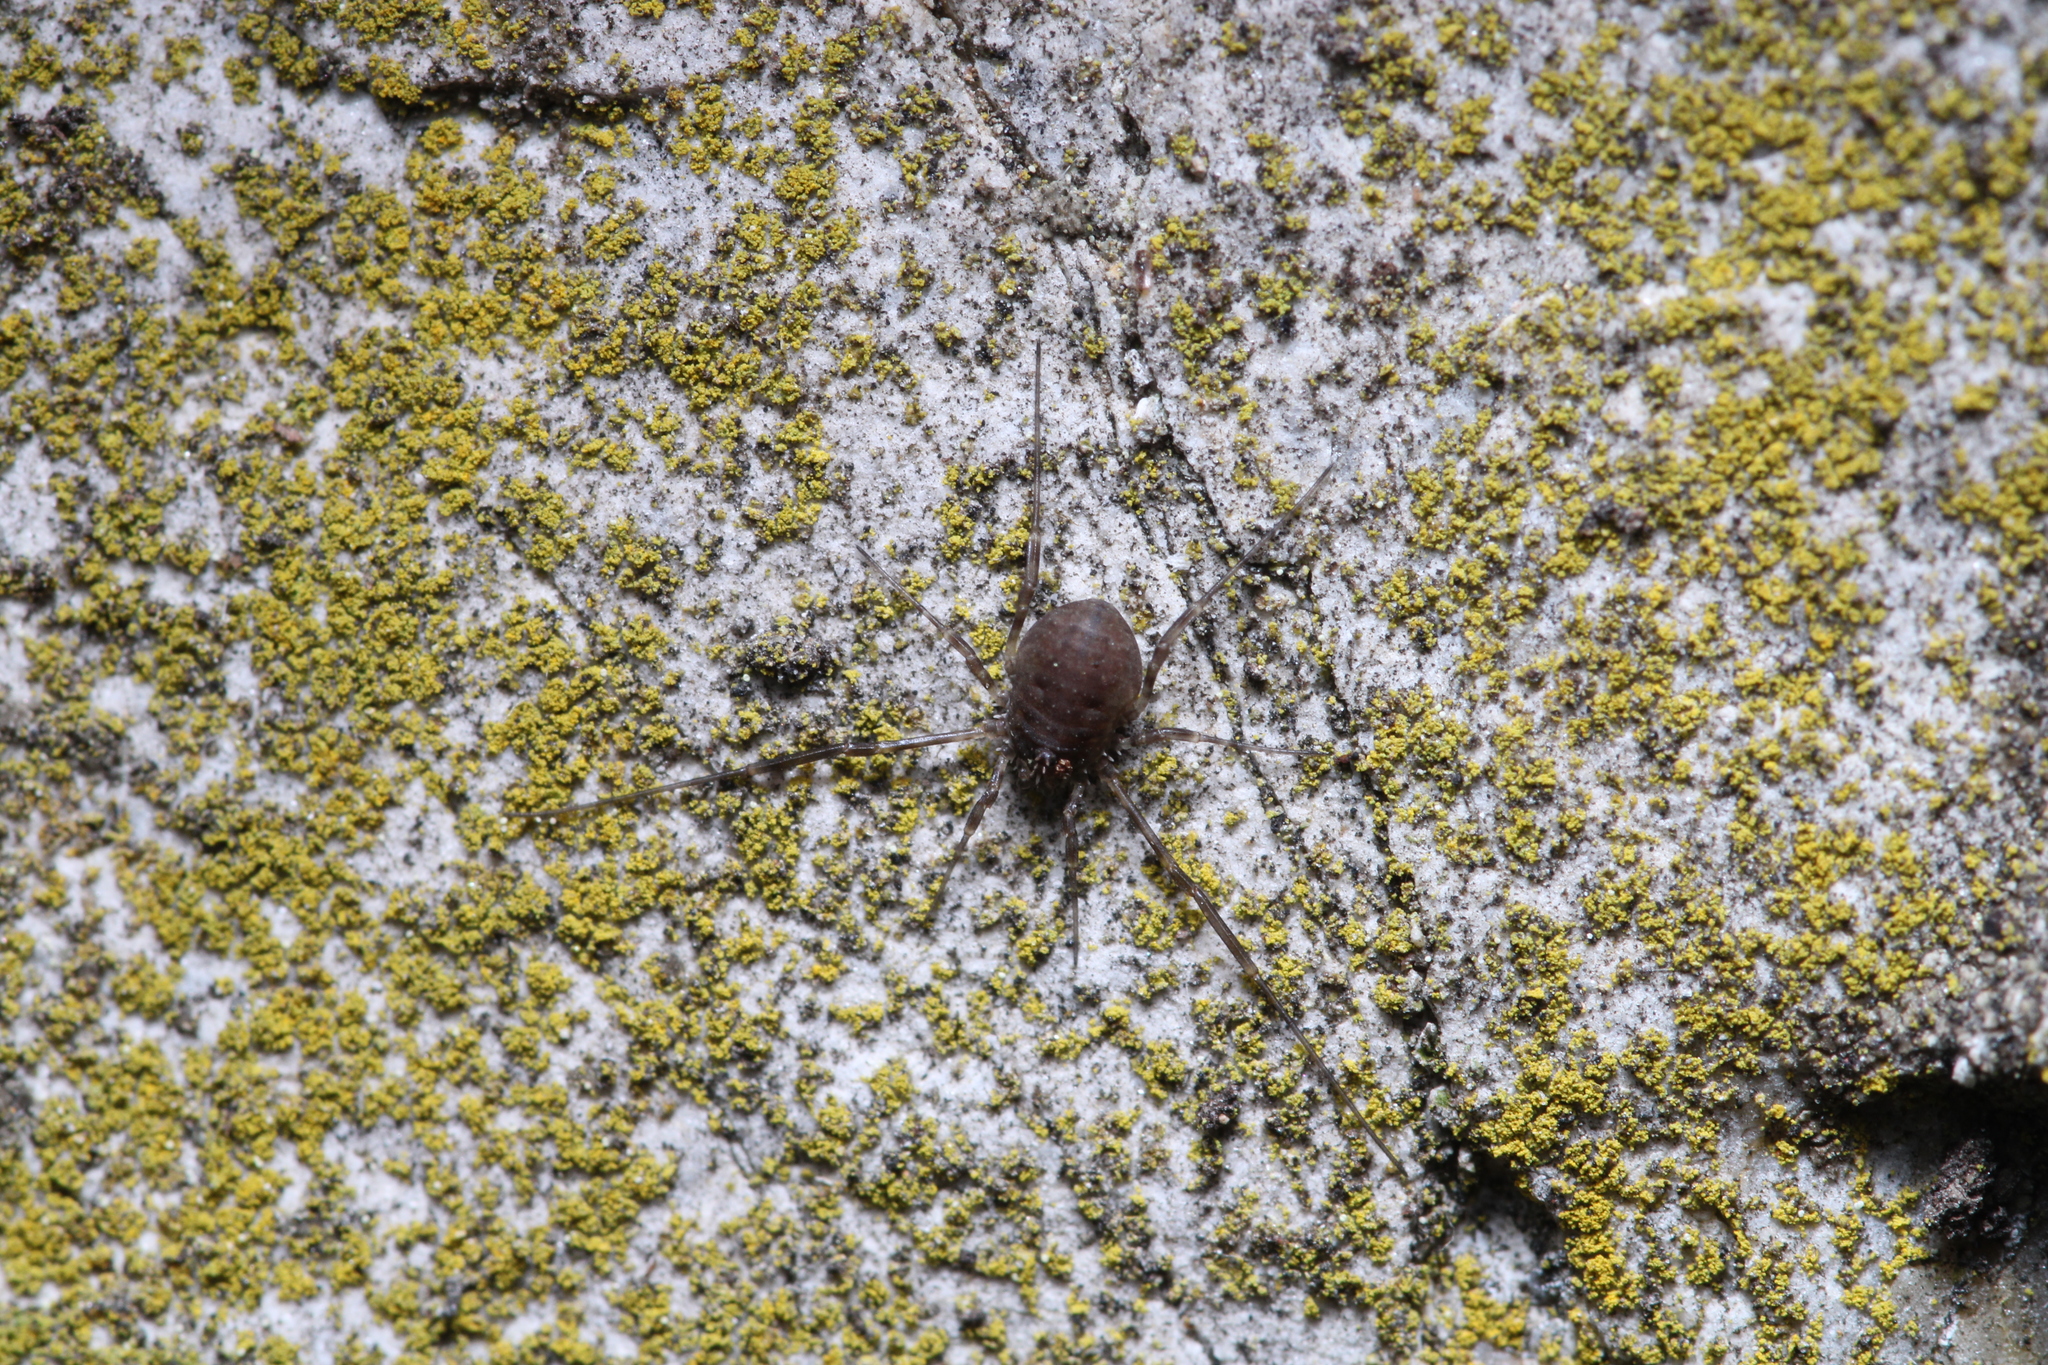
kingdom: Animalia
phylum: Arthropoda
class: Arachnida
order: Opiliones
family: Phalangiidae
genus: Lacinius
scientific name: Lacinius dentiger
